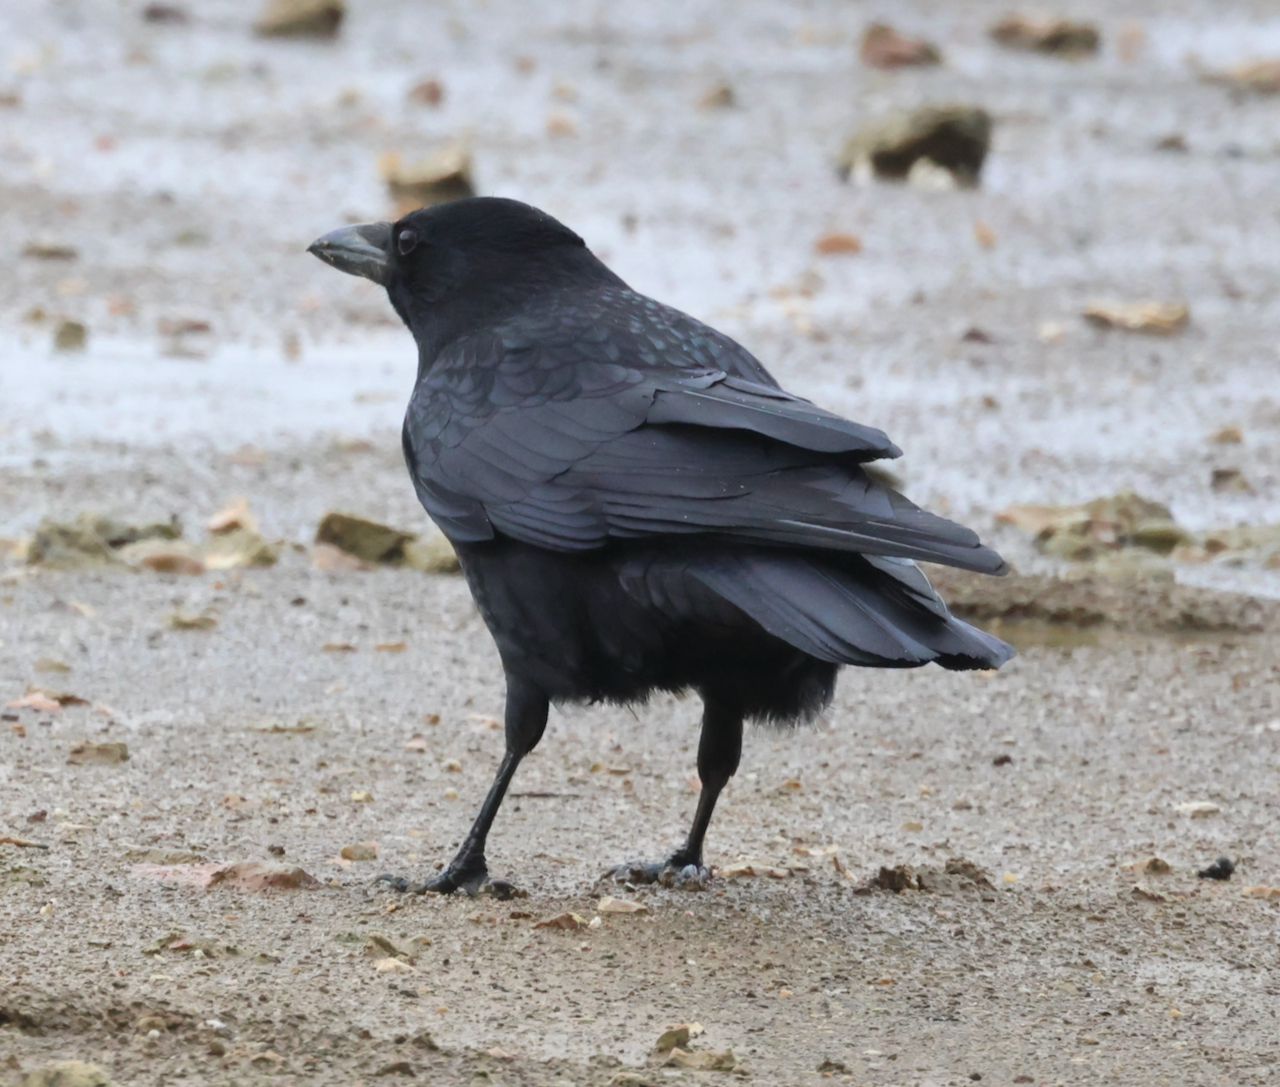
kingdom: Animalia
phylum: Chordata
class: Aves
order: Passeriformes
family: Corvidae
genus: Corvus
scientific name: Corvus corone
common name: Carrion crow
